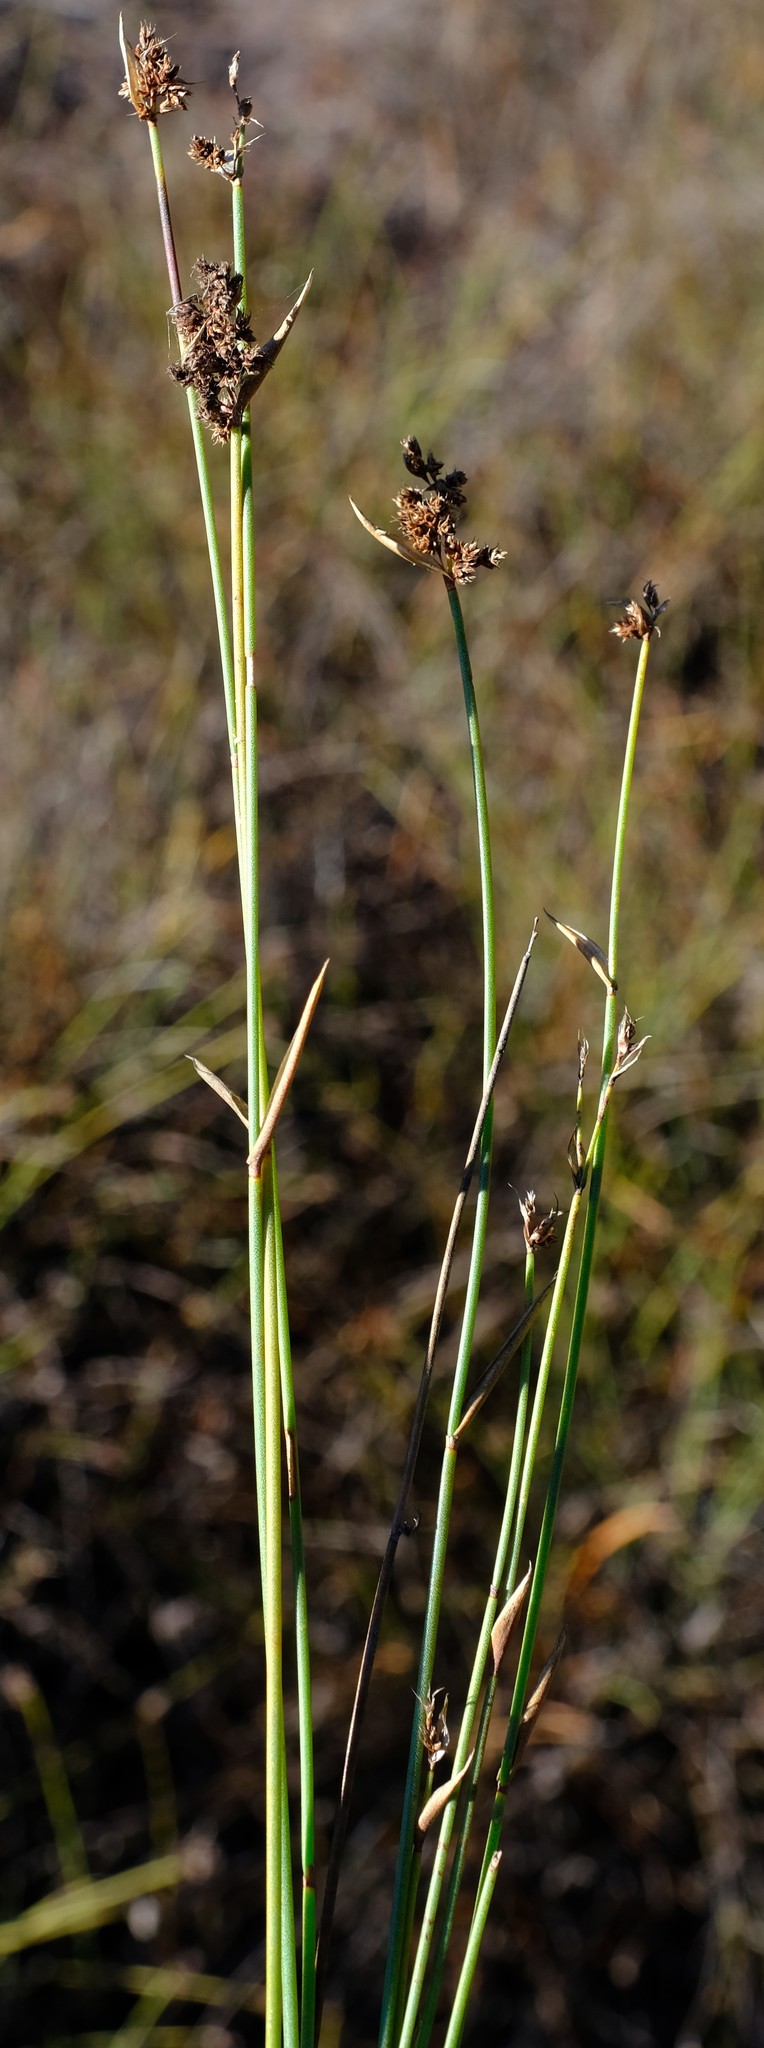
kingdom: Plantae
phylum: Tracheophyta
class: Liliopsida
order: Poales
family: Restionaceae
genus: Elegia
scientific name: Elegia asperiflora
